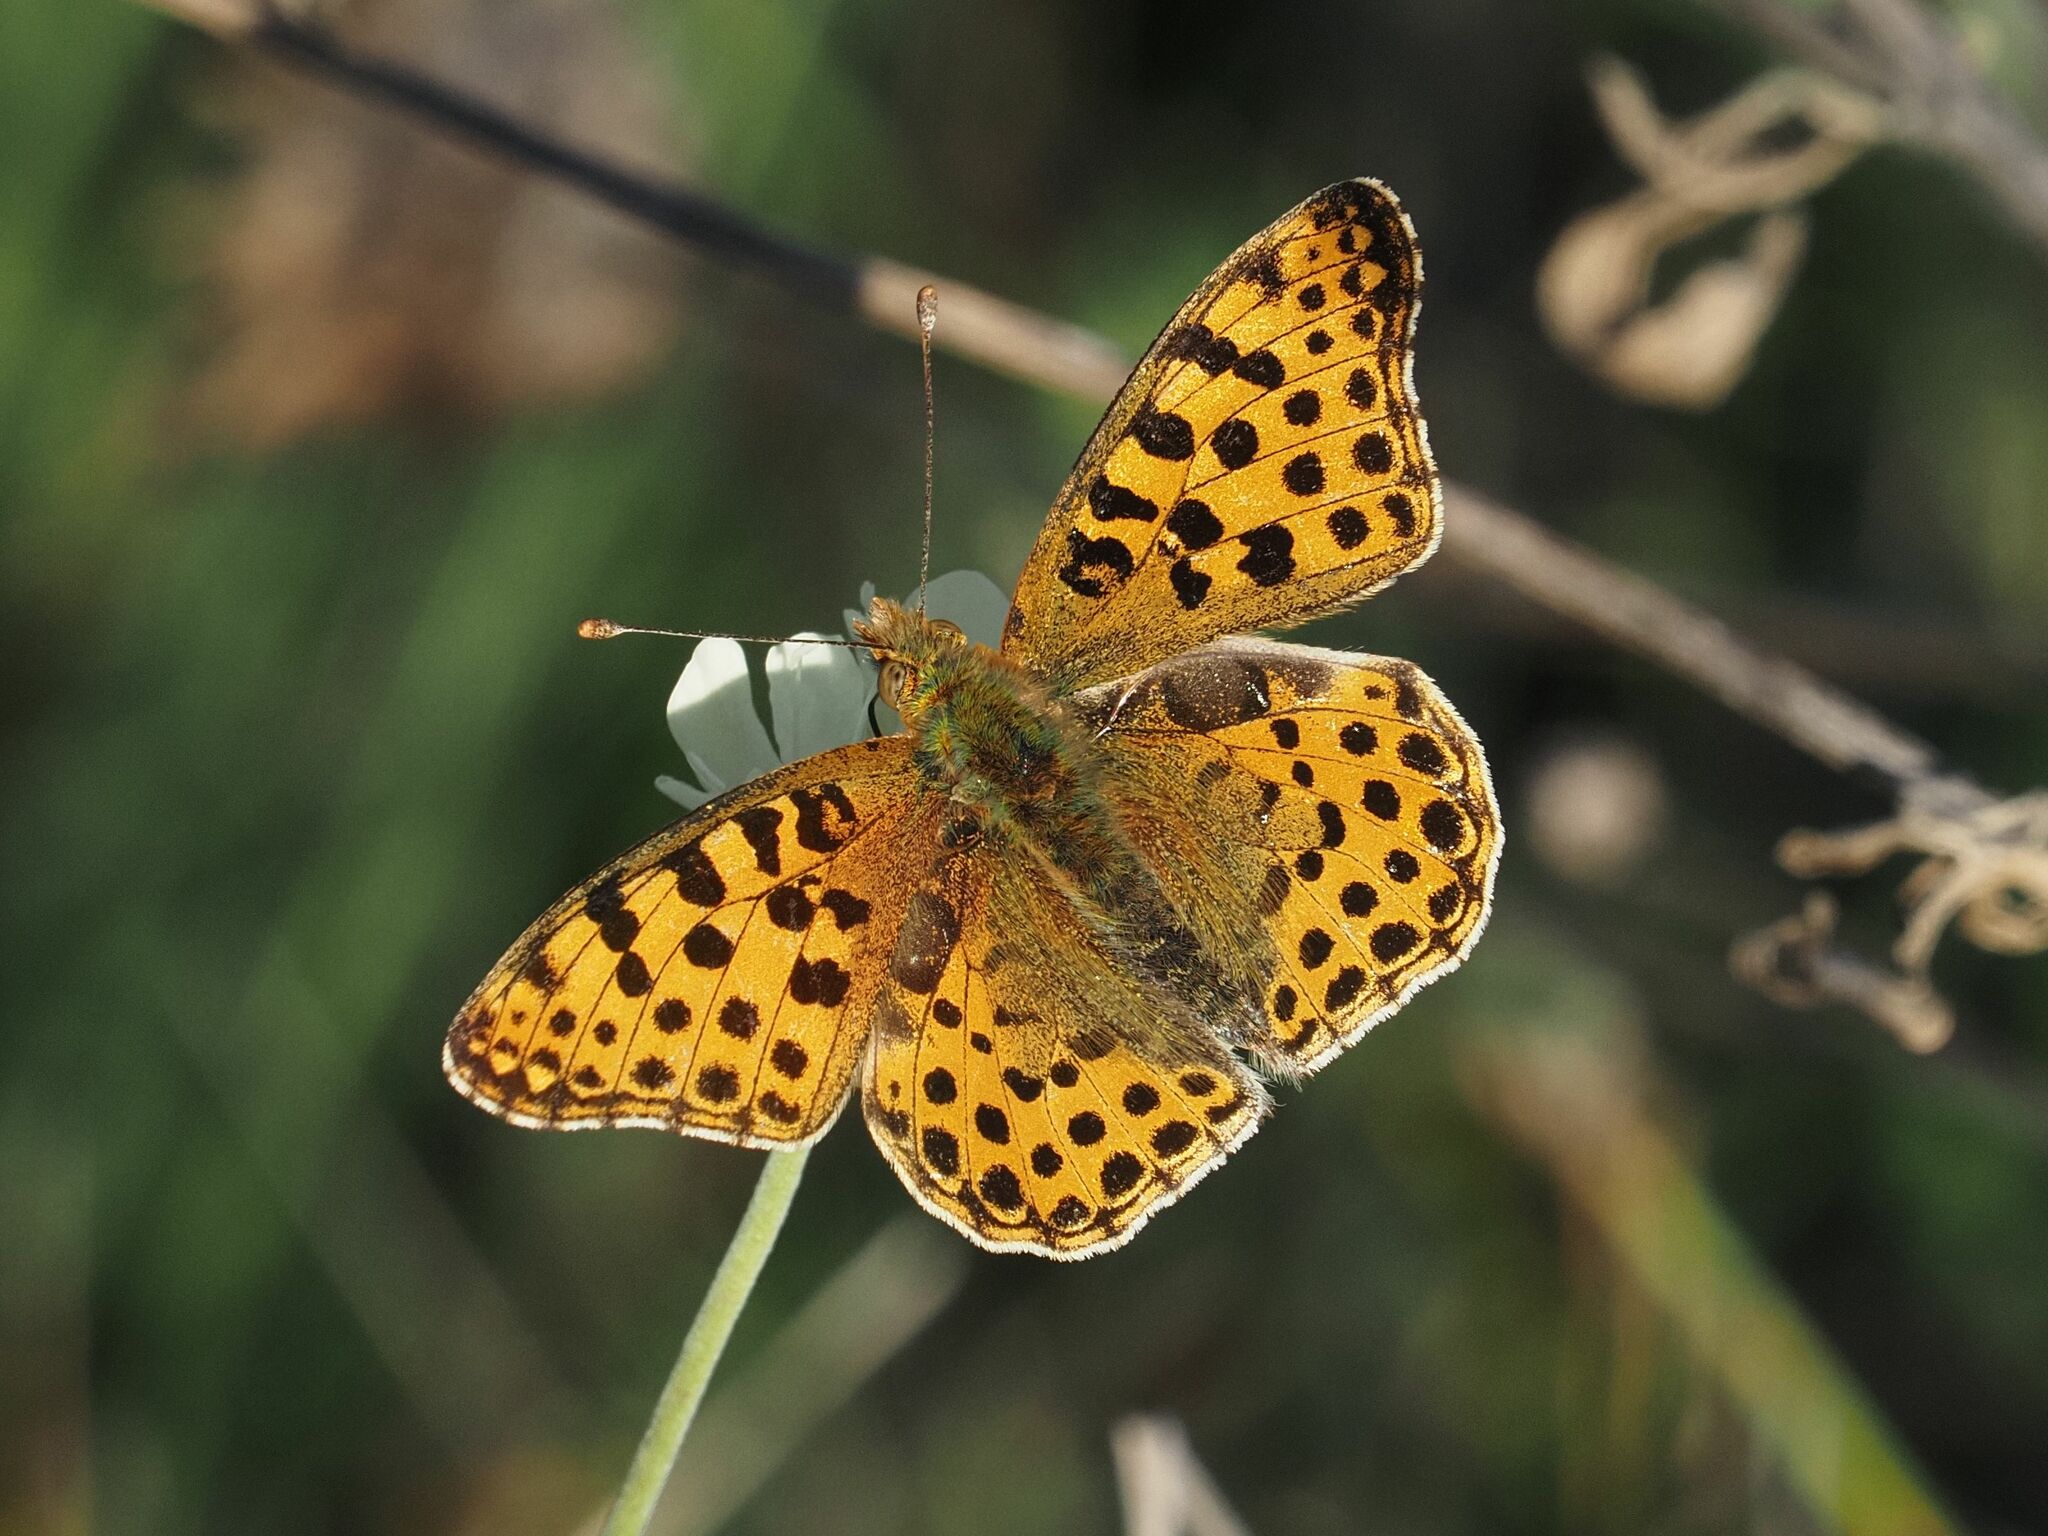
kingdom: Animalia
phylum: Arthropoda
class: Insecta
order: Lepidoptera
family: Nymphalidae
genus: Issoria
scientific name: Issoria lathonia
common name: Queen of spain fritillary
